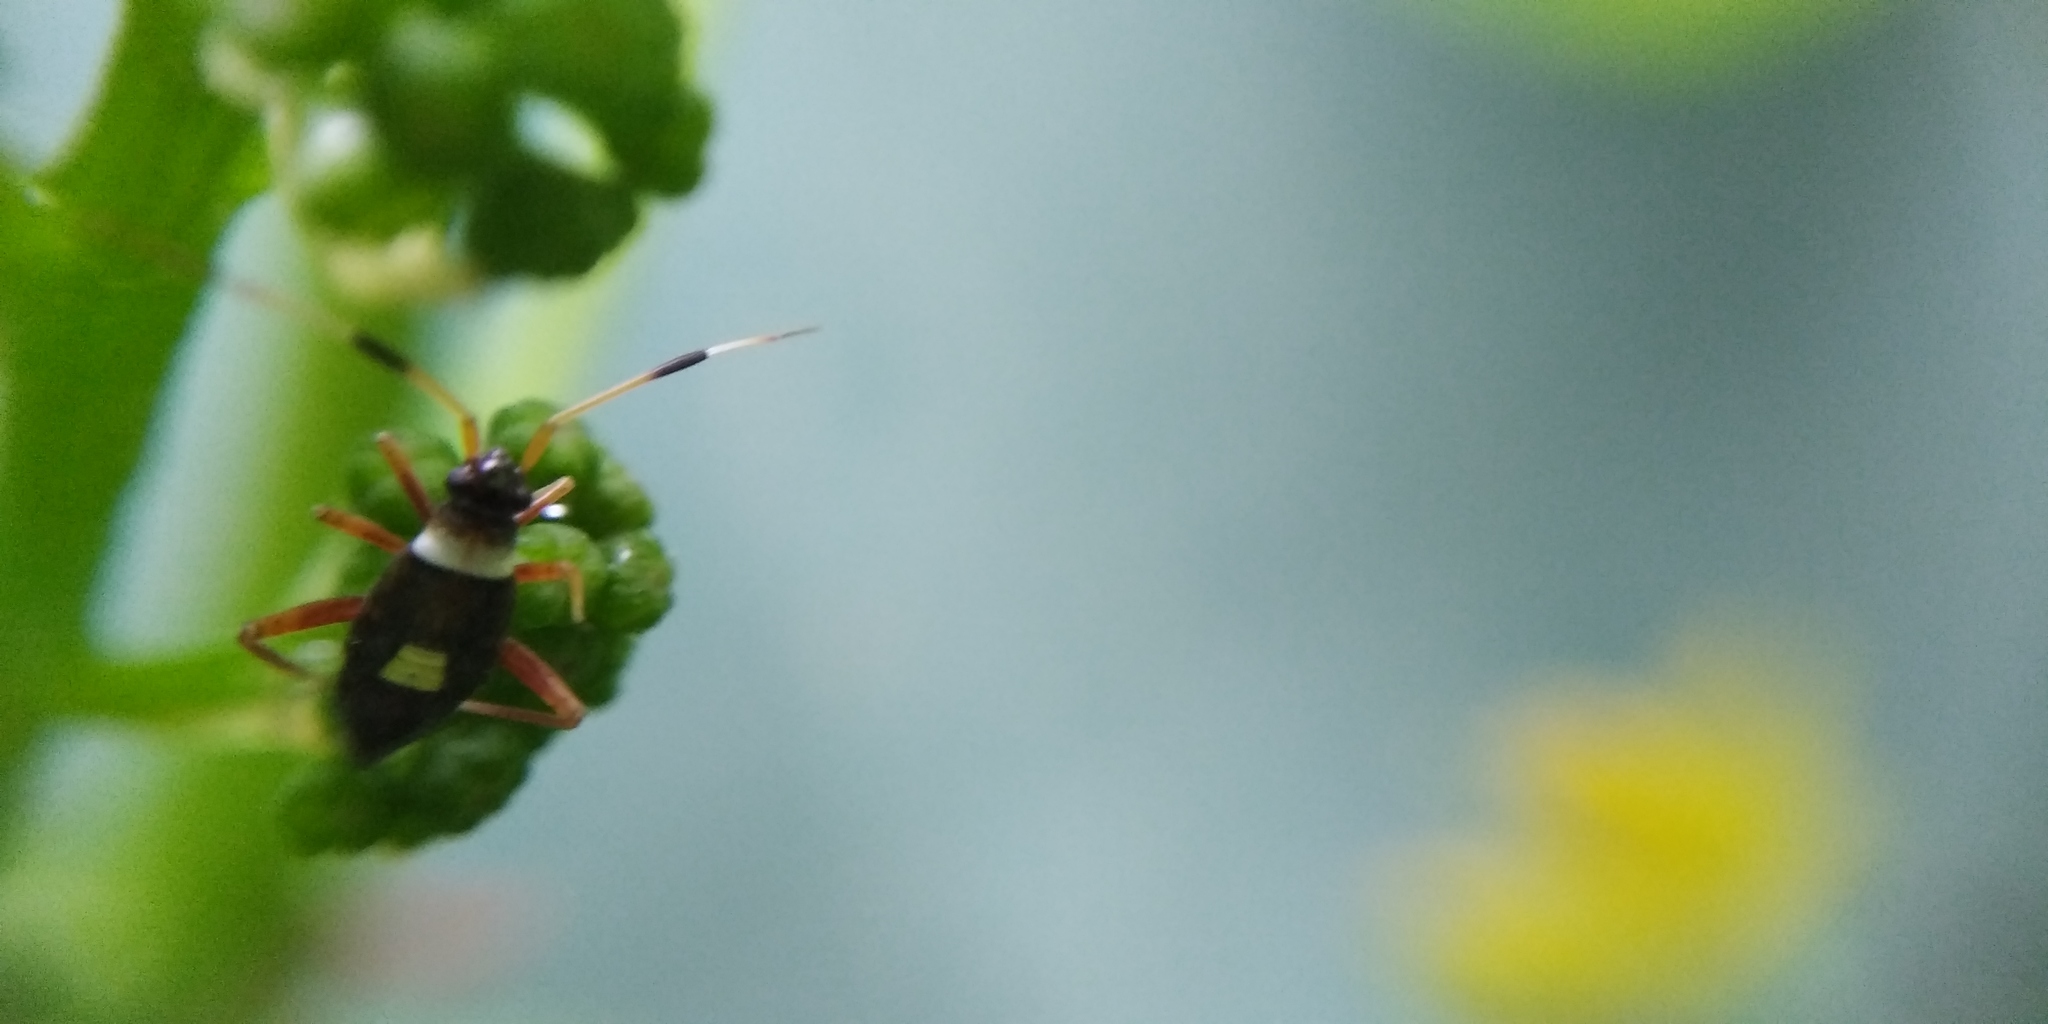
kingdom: Animalia
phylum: Arthropoda
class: Insecta
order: Hemiptera
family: Miridae
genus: Closterotomus
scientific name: Closterotomus biclavatus
